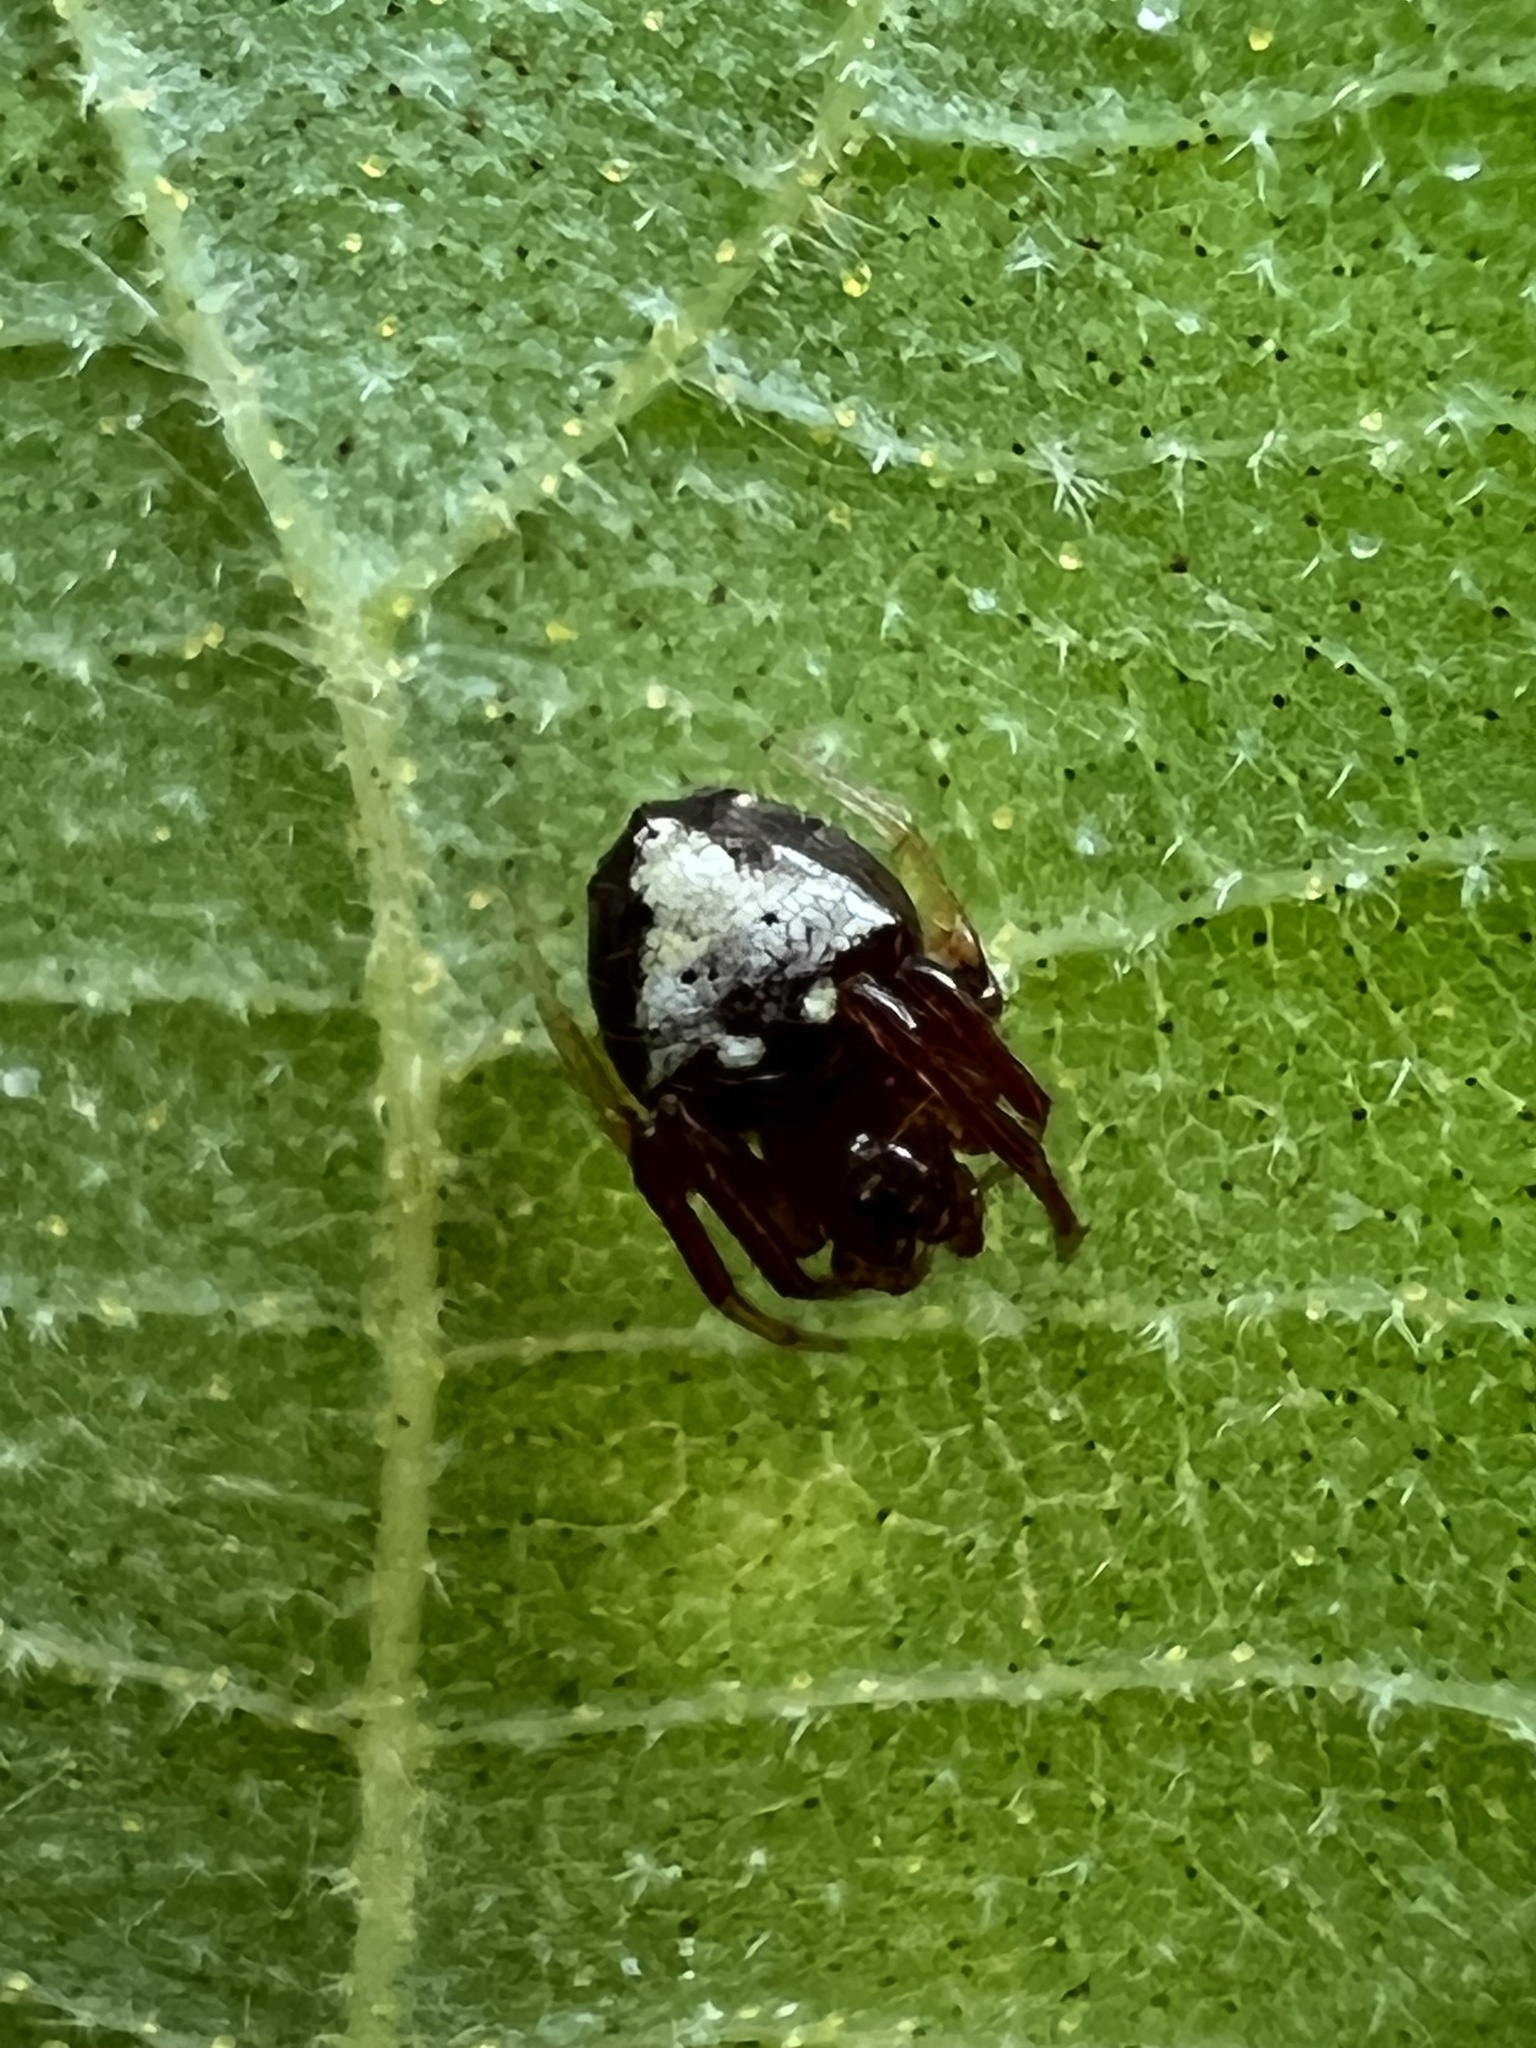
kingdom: Animalia
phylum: Arthropoda
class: Arachnida
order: Araneae
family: Araneidae
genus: Verrucosa
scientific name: Verrucosa arenata
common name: Orb weavers
